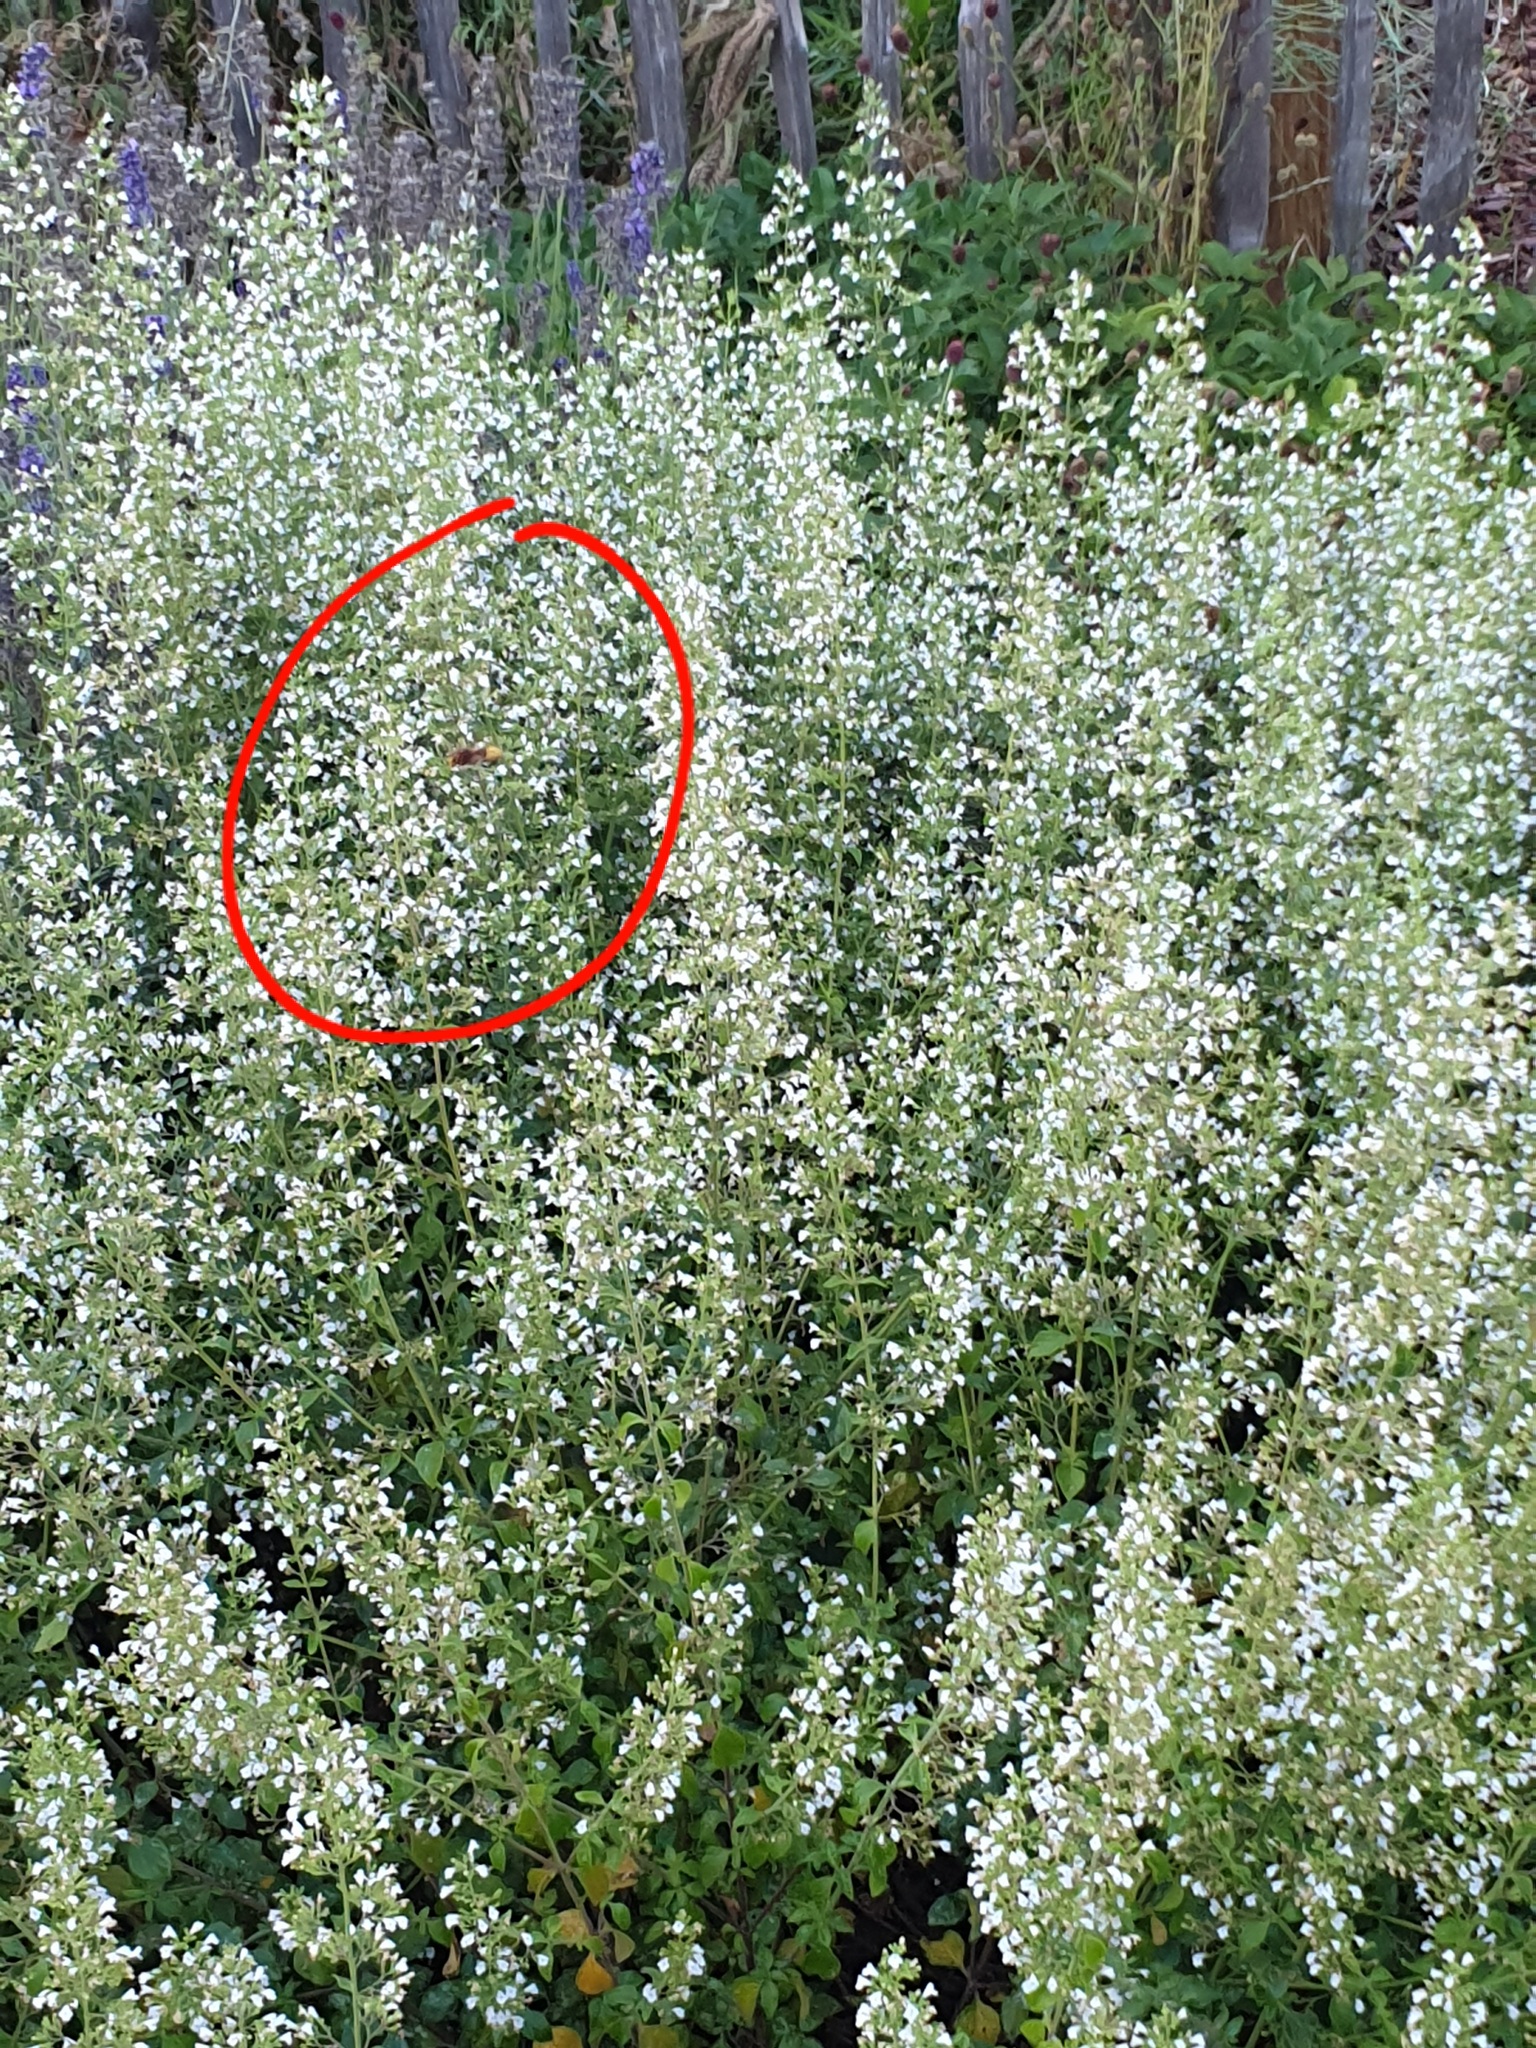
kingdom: Animalia
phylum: Arthropoda
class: Insecta
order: Hymenoptera
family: Vespidae
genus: Vespa
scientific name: Vespa crabro
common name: Hornet
